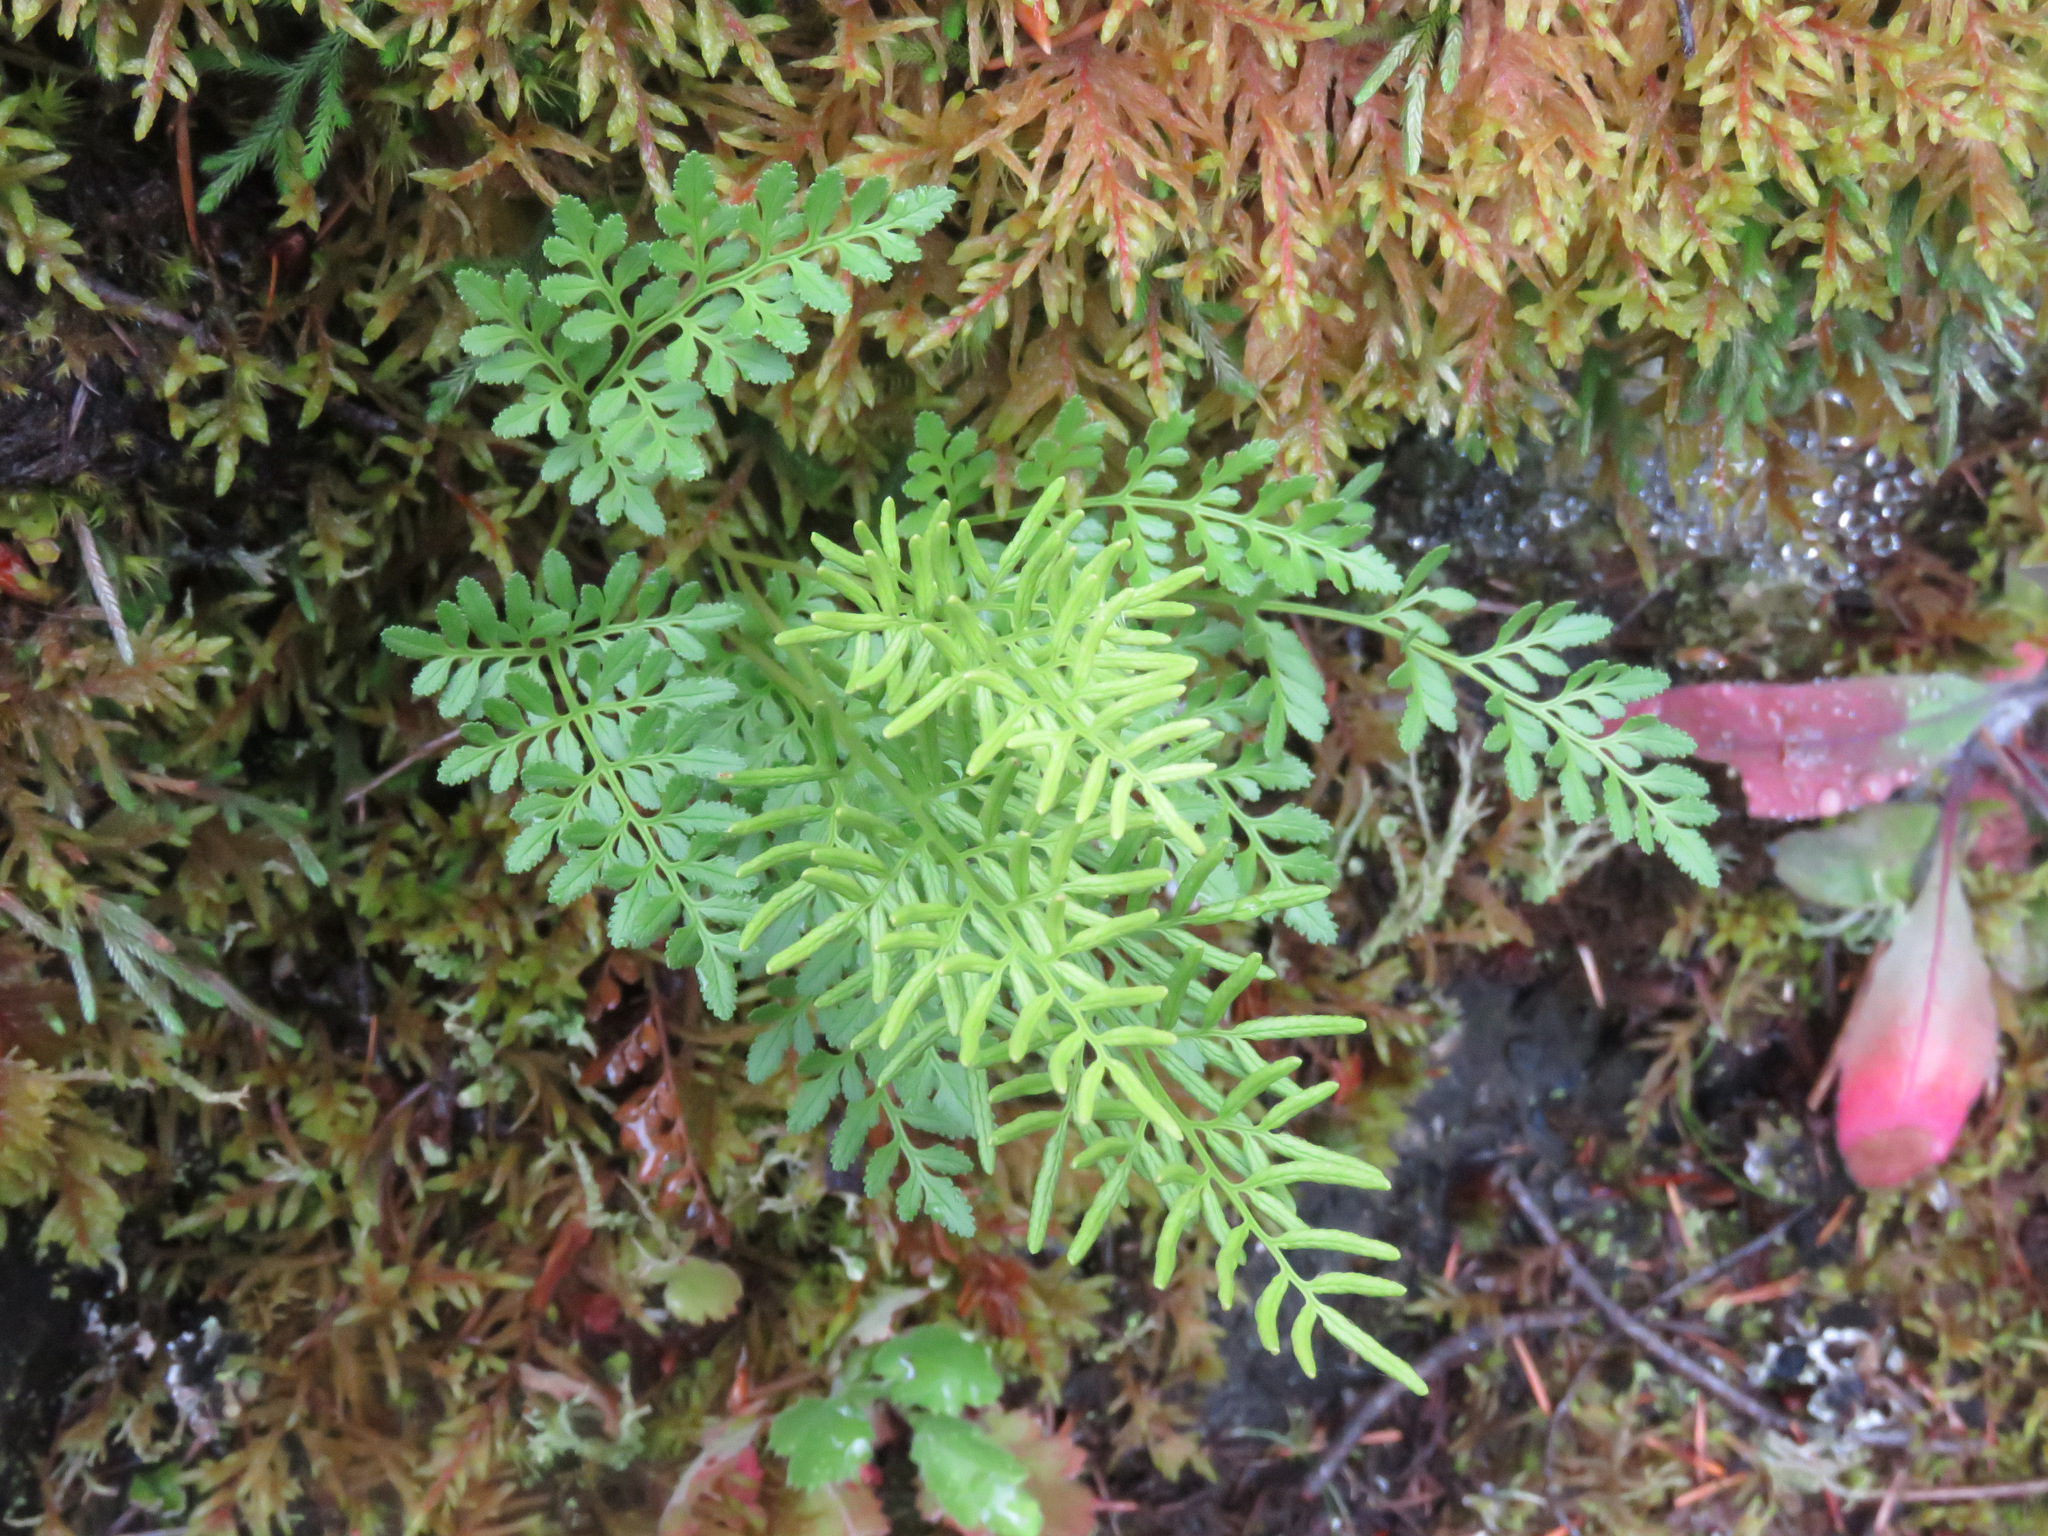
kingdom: Plantae
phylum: Tracheophyta
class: Polypodiopsida
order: Polypodiales
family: Pteridaceae
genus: Cryptogramma
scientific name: Cryptogramma acrostichoides
